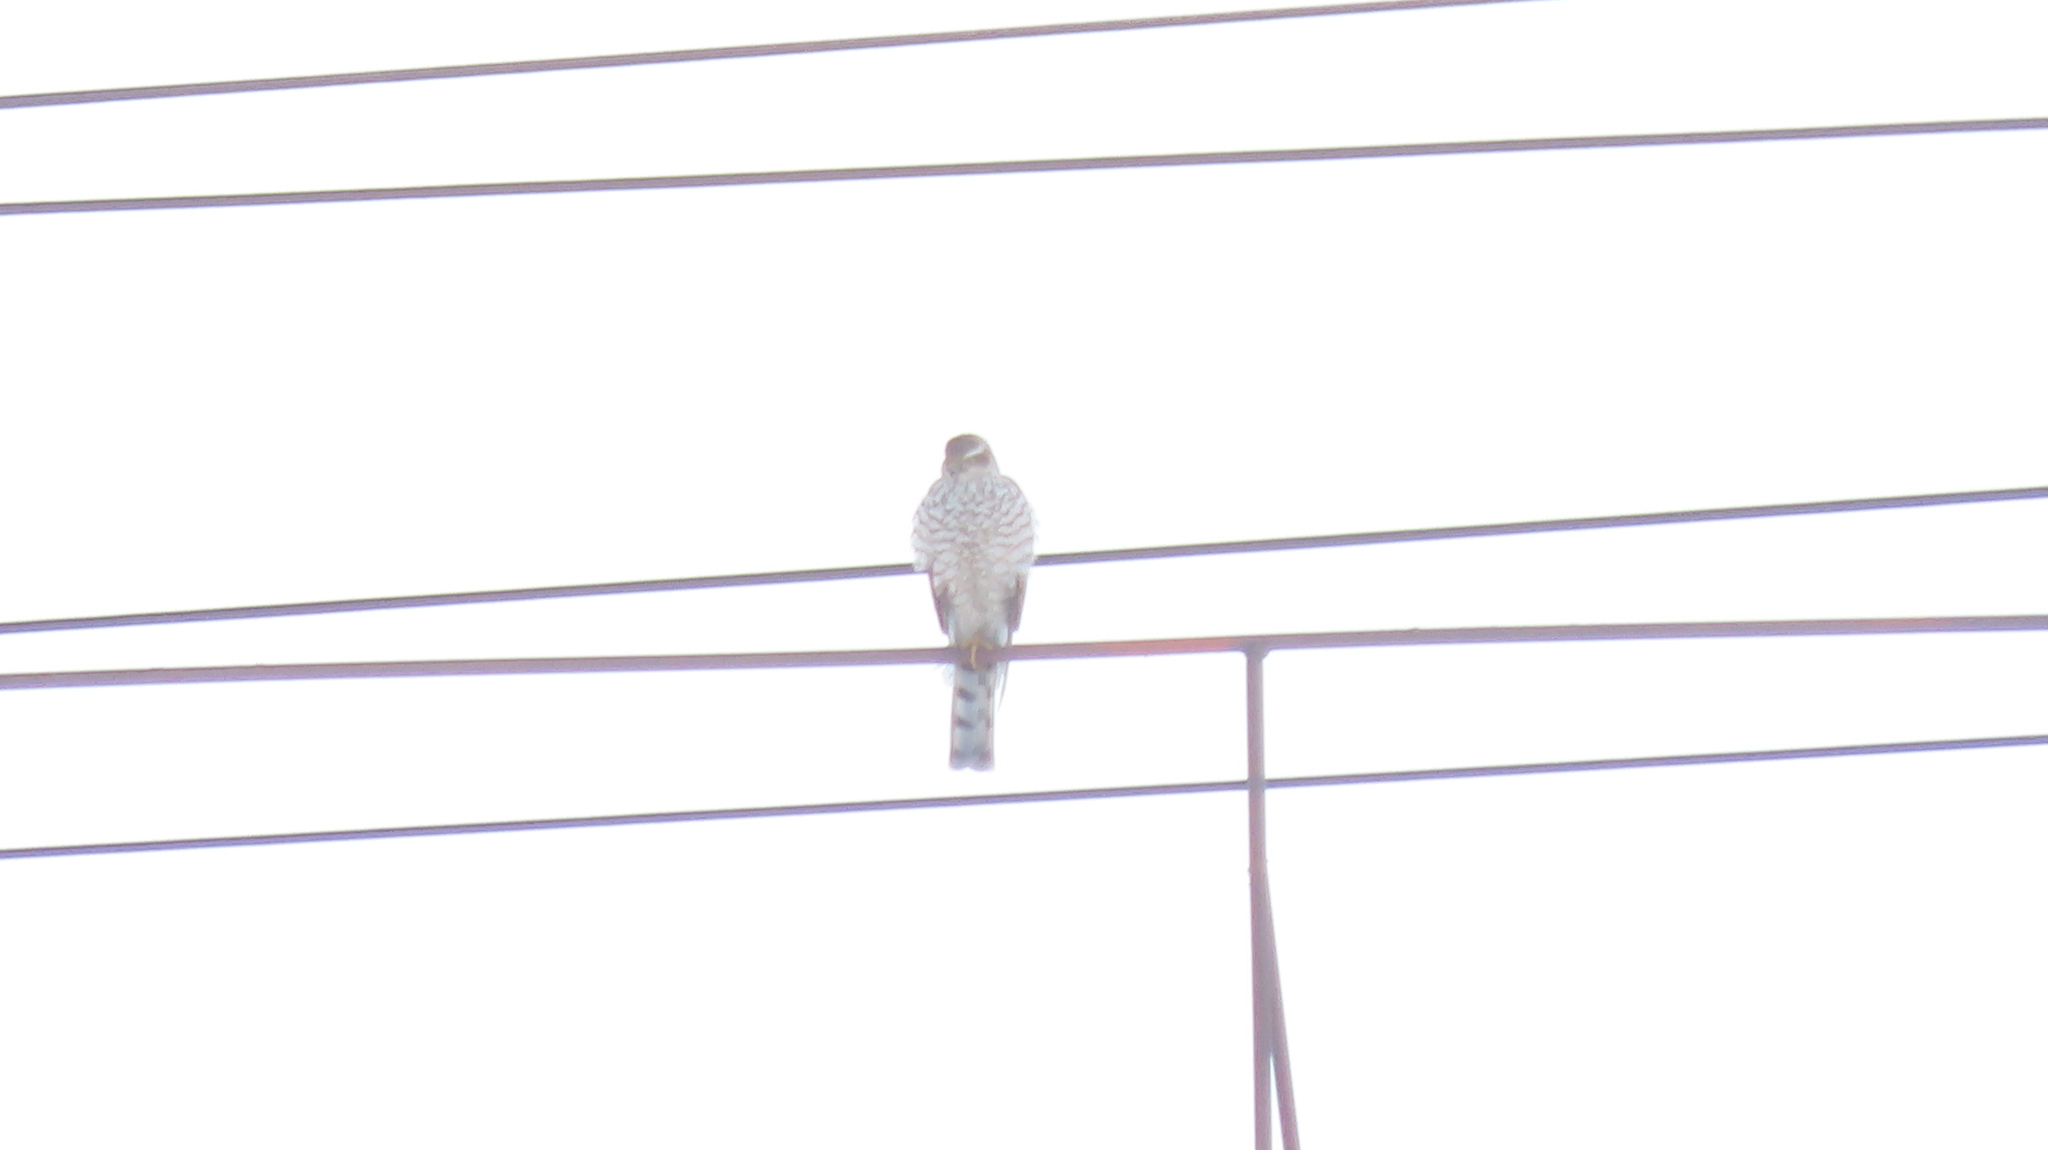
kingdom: Animalia
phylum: Chordata
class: Aves
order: Accipitriformes
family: Accipitridae
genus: Accipiter
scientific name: Accipiter nisus
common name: Eurasian sparrowhawk
